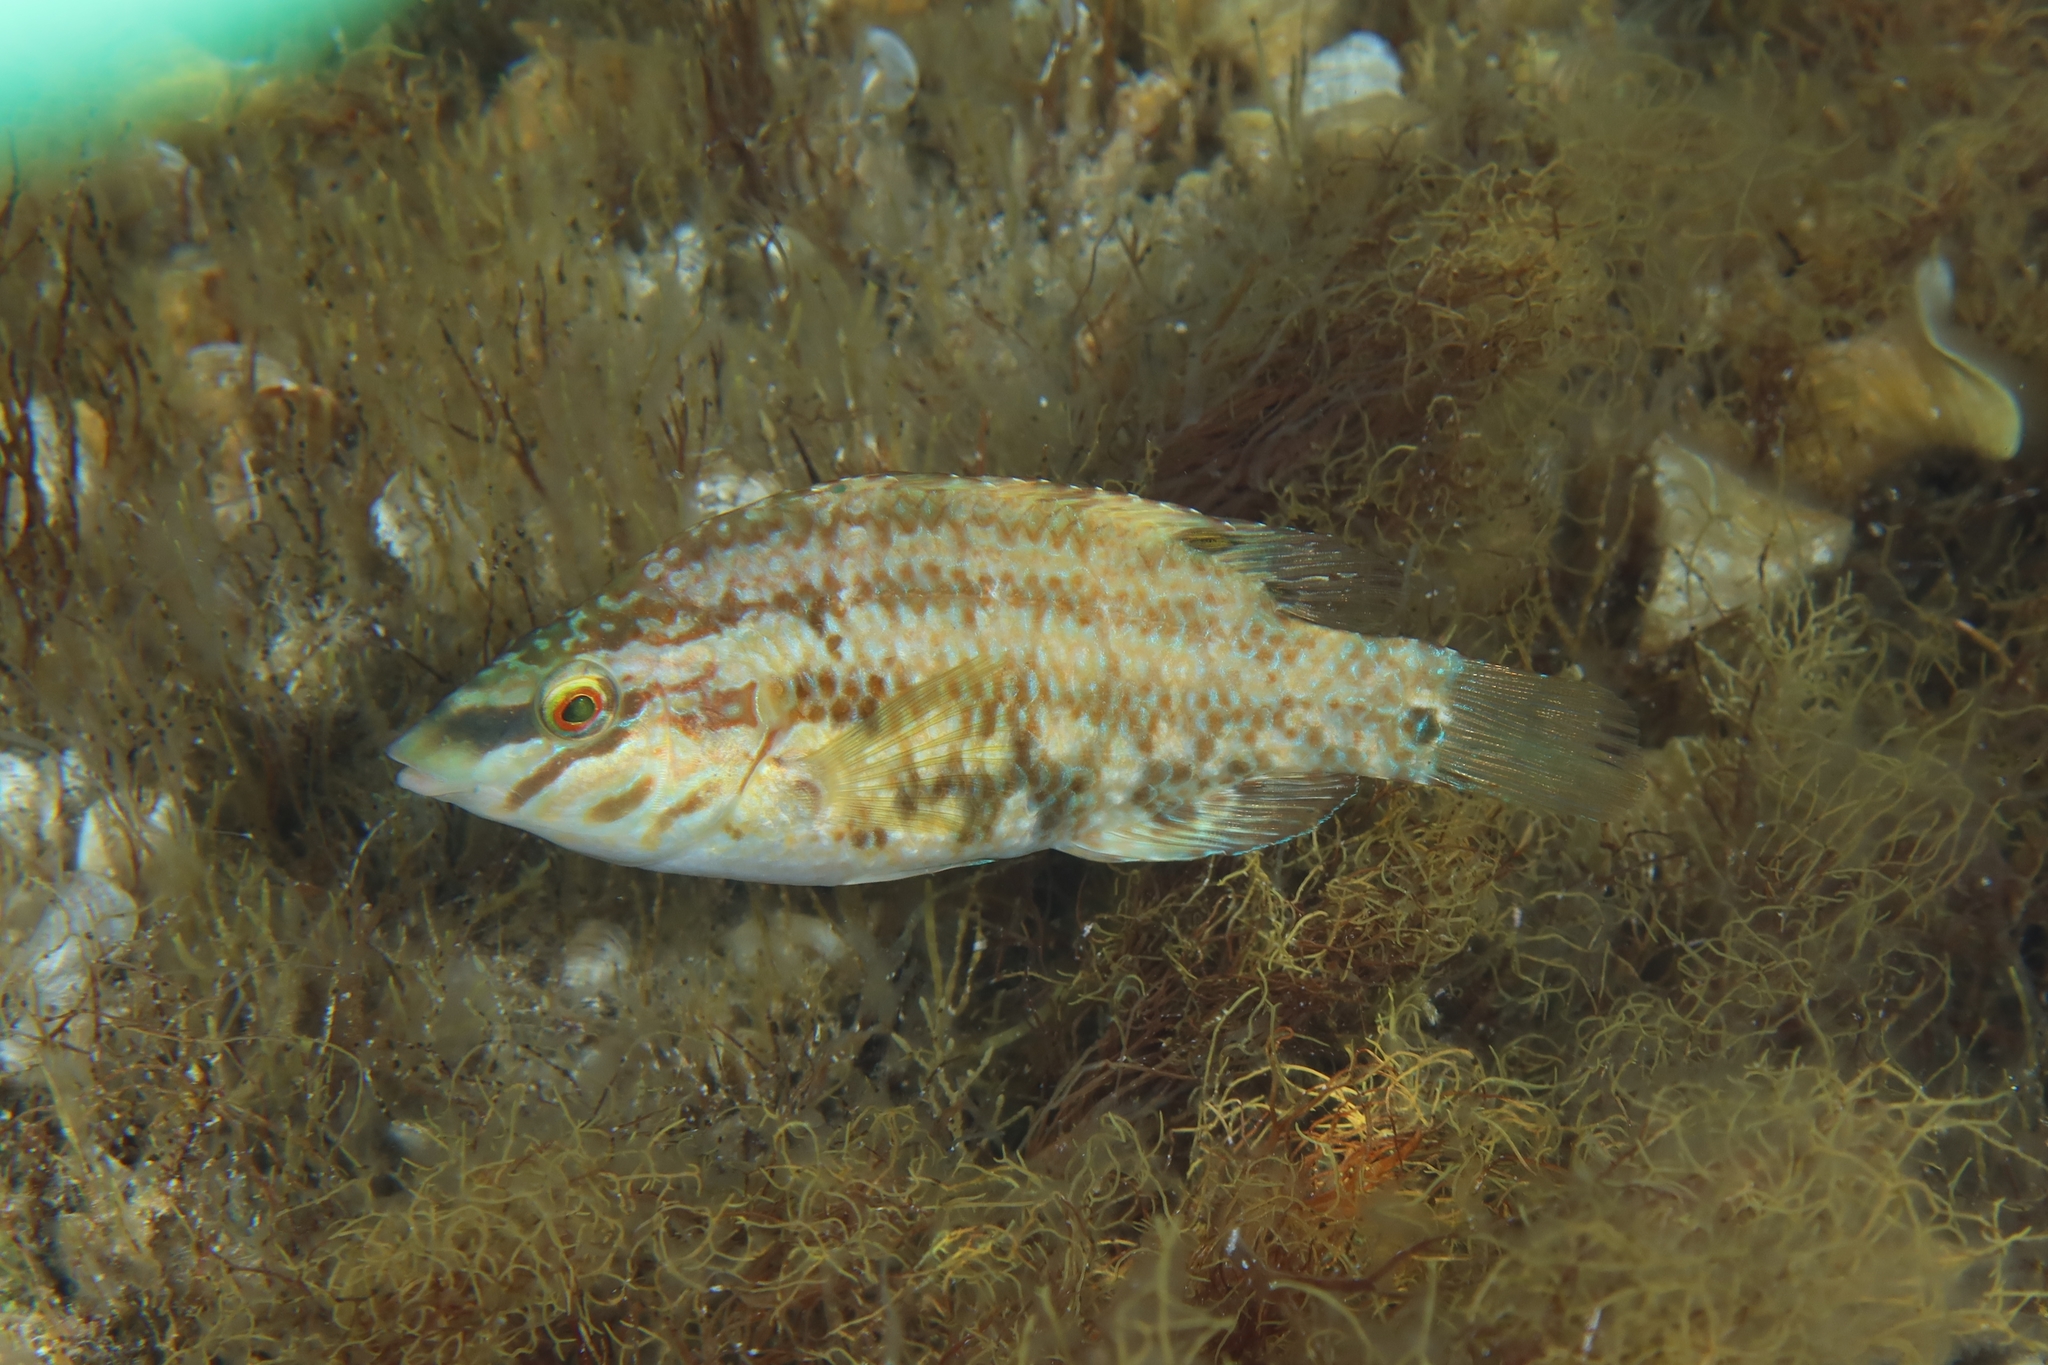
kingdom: Animalia
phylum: Chordata
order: Perciformes
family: Labridae
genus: Symphodus
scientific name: Symphodus roissali
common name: Five-spotted wrasse
